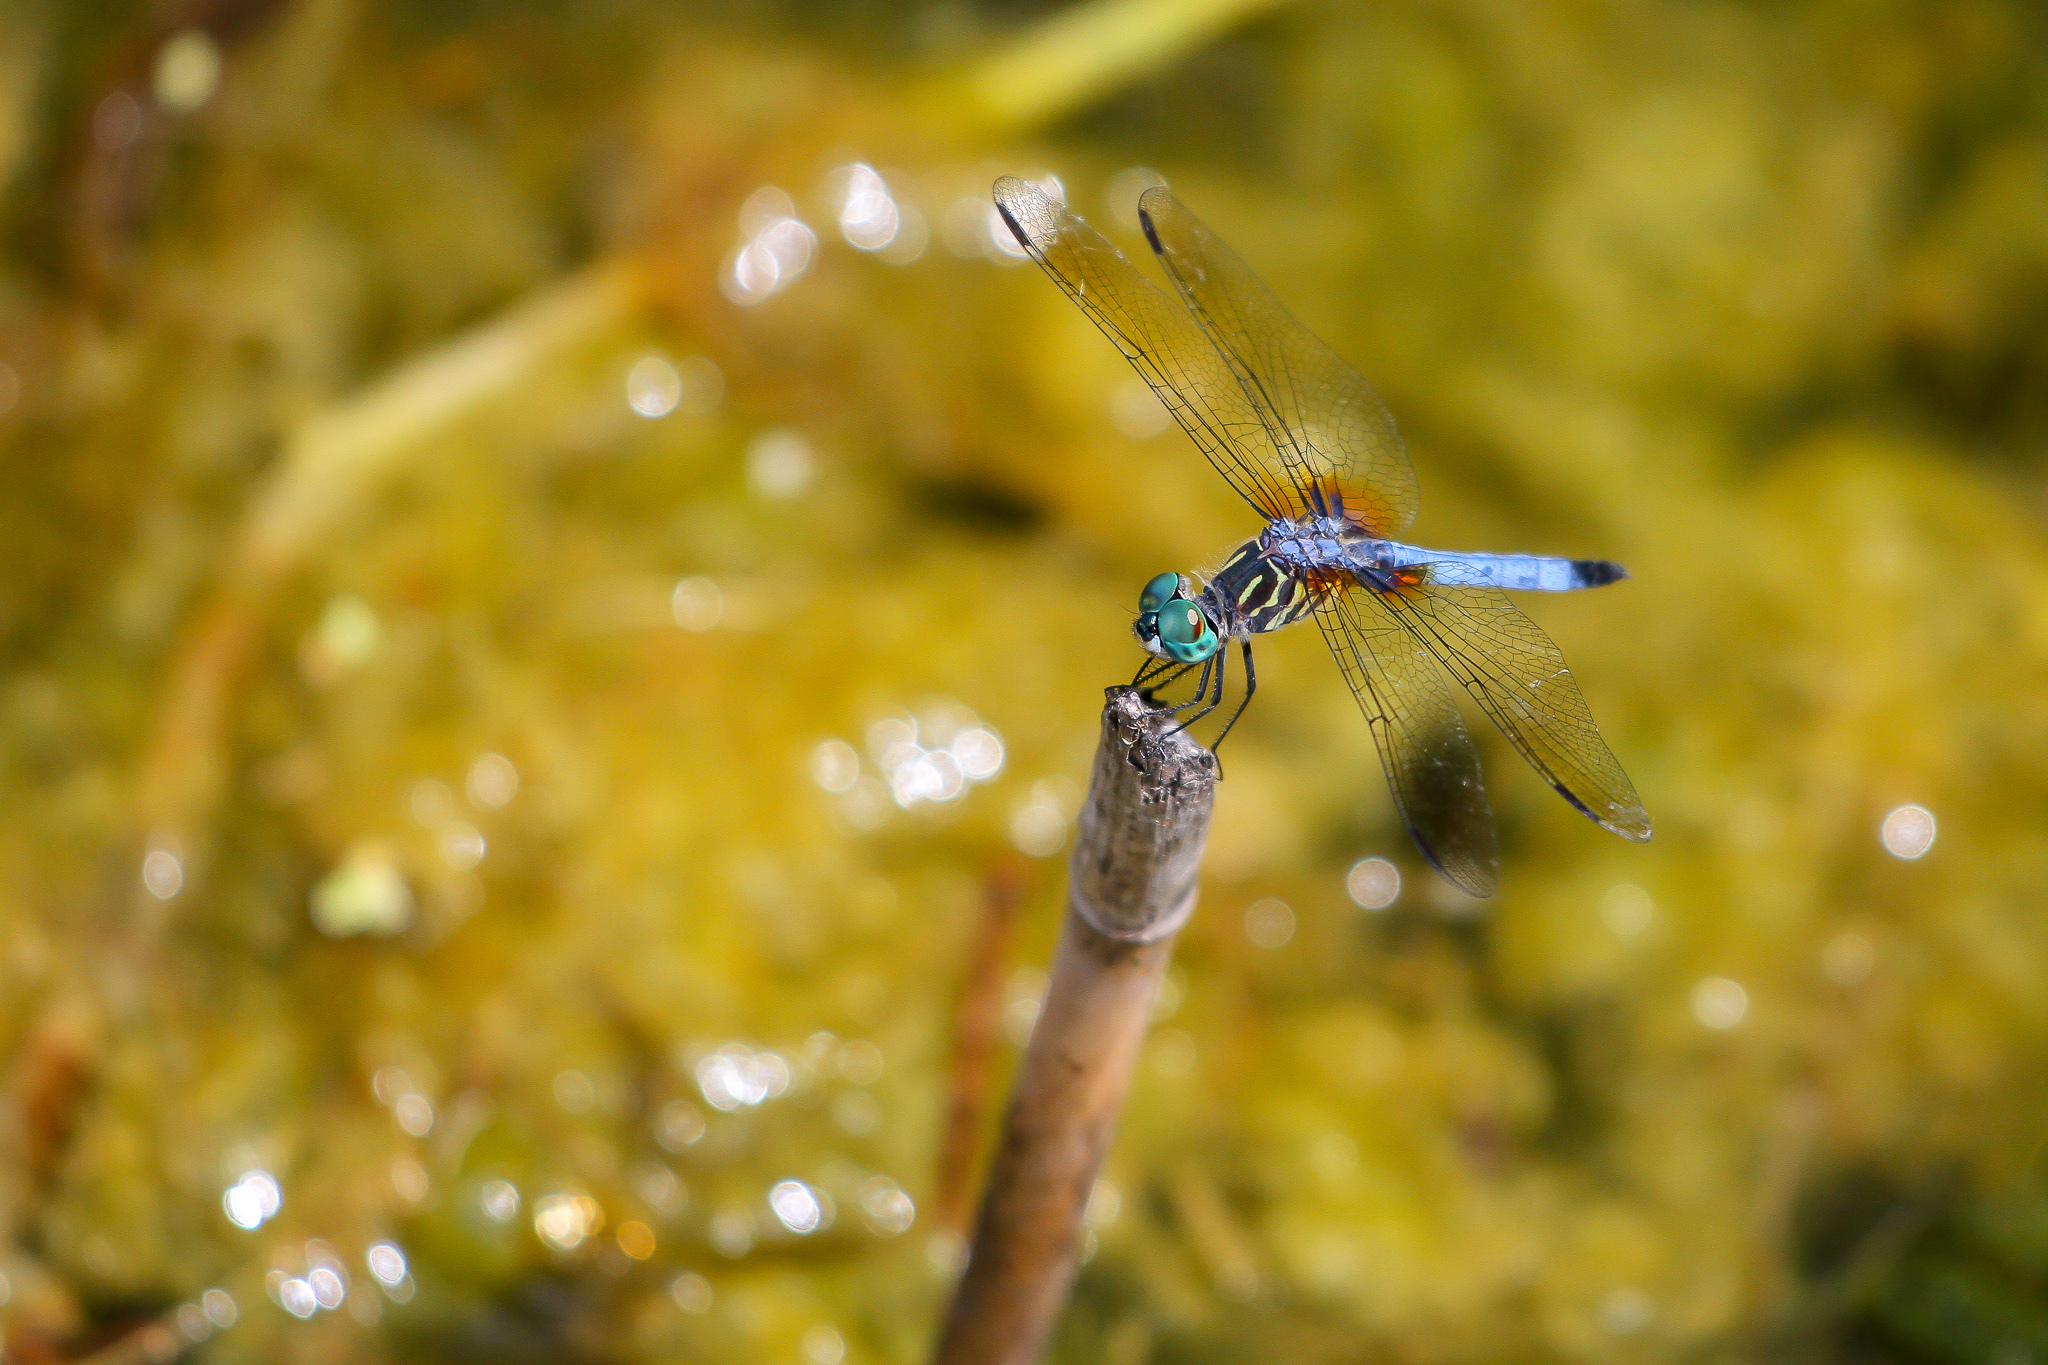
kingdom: Animalia
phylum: Arthropoda
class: Insecta
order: Odonata
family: Libellulidae
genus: Pachydiplax
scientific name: Pachydiplax longipennis
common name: Blue dasher
